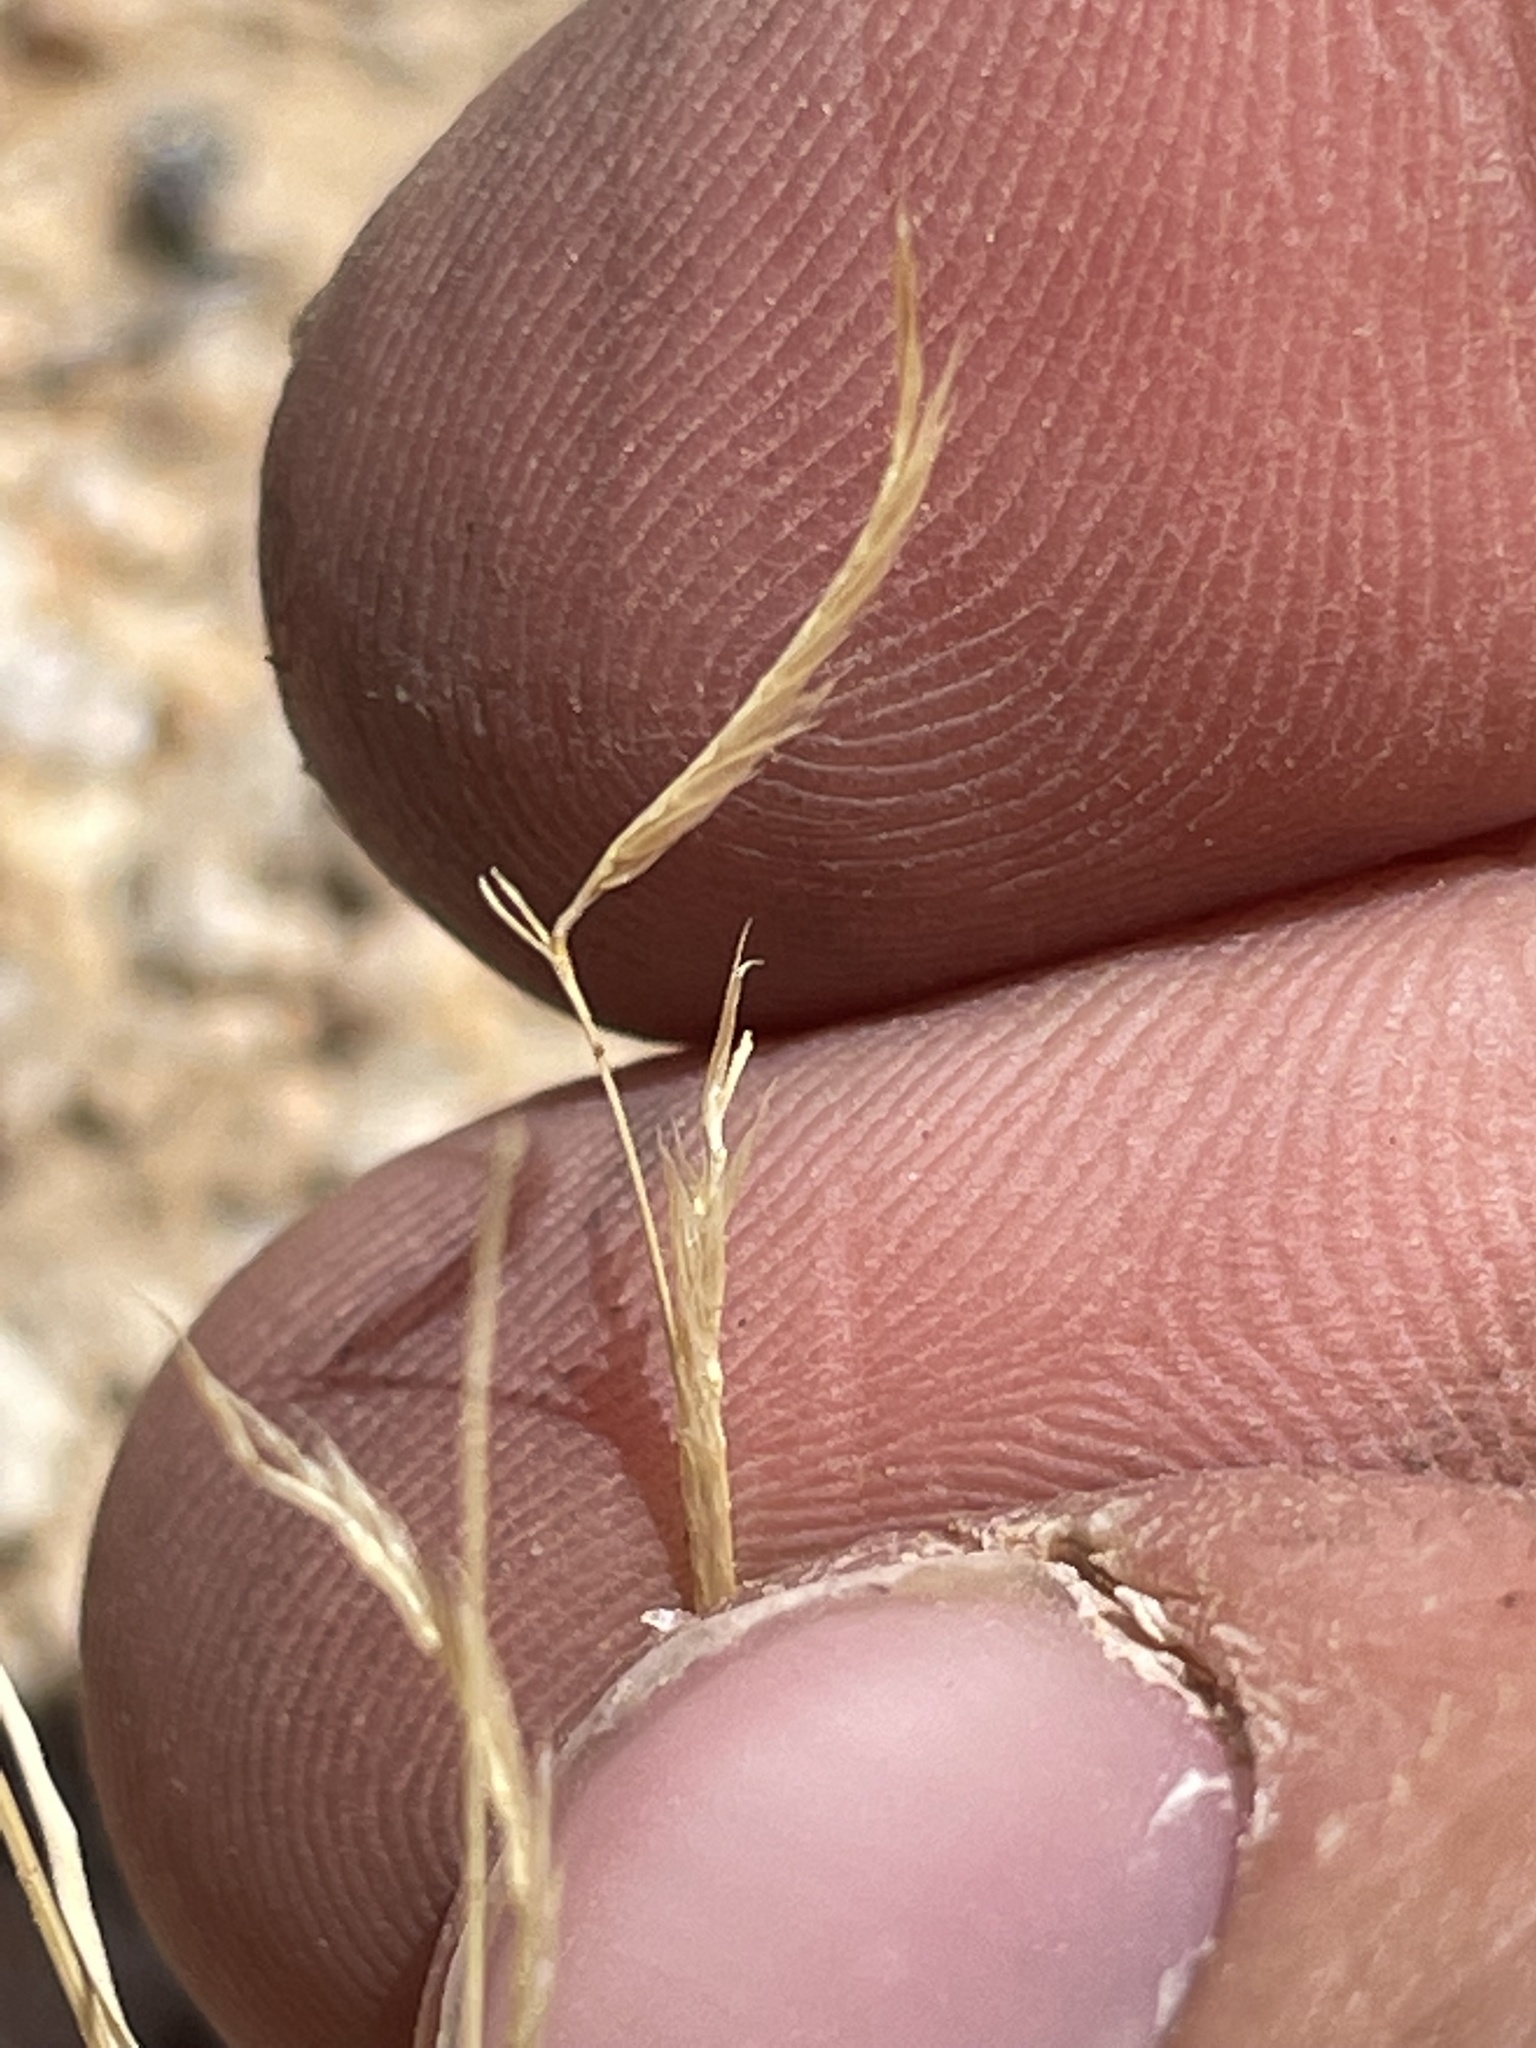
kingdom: Plantae
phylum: Tracheophyta
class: Liliopsida
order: Poales
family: Poaceae
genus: Bouteloua
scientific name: Bouteloua barbata
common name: Six-weeks grama
